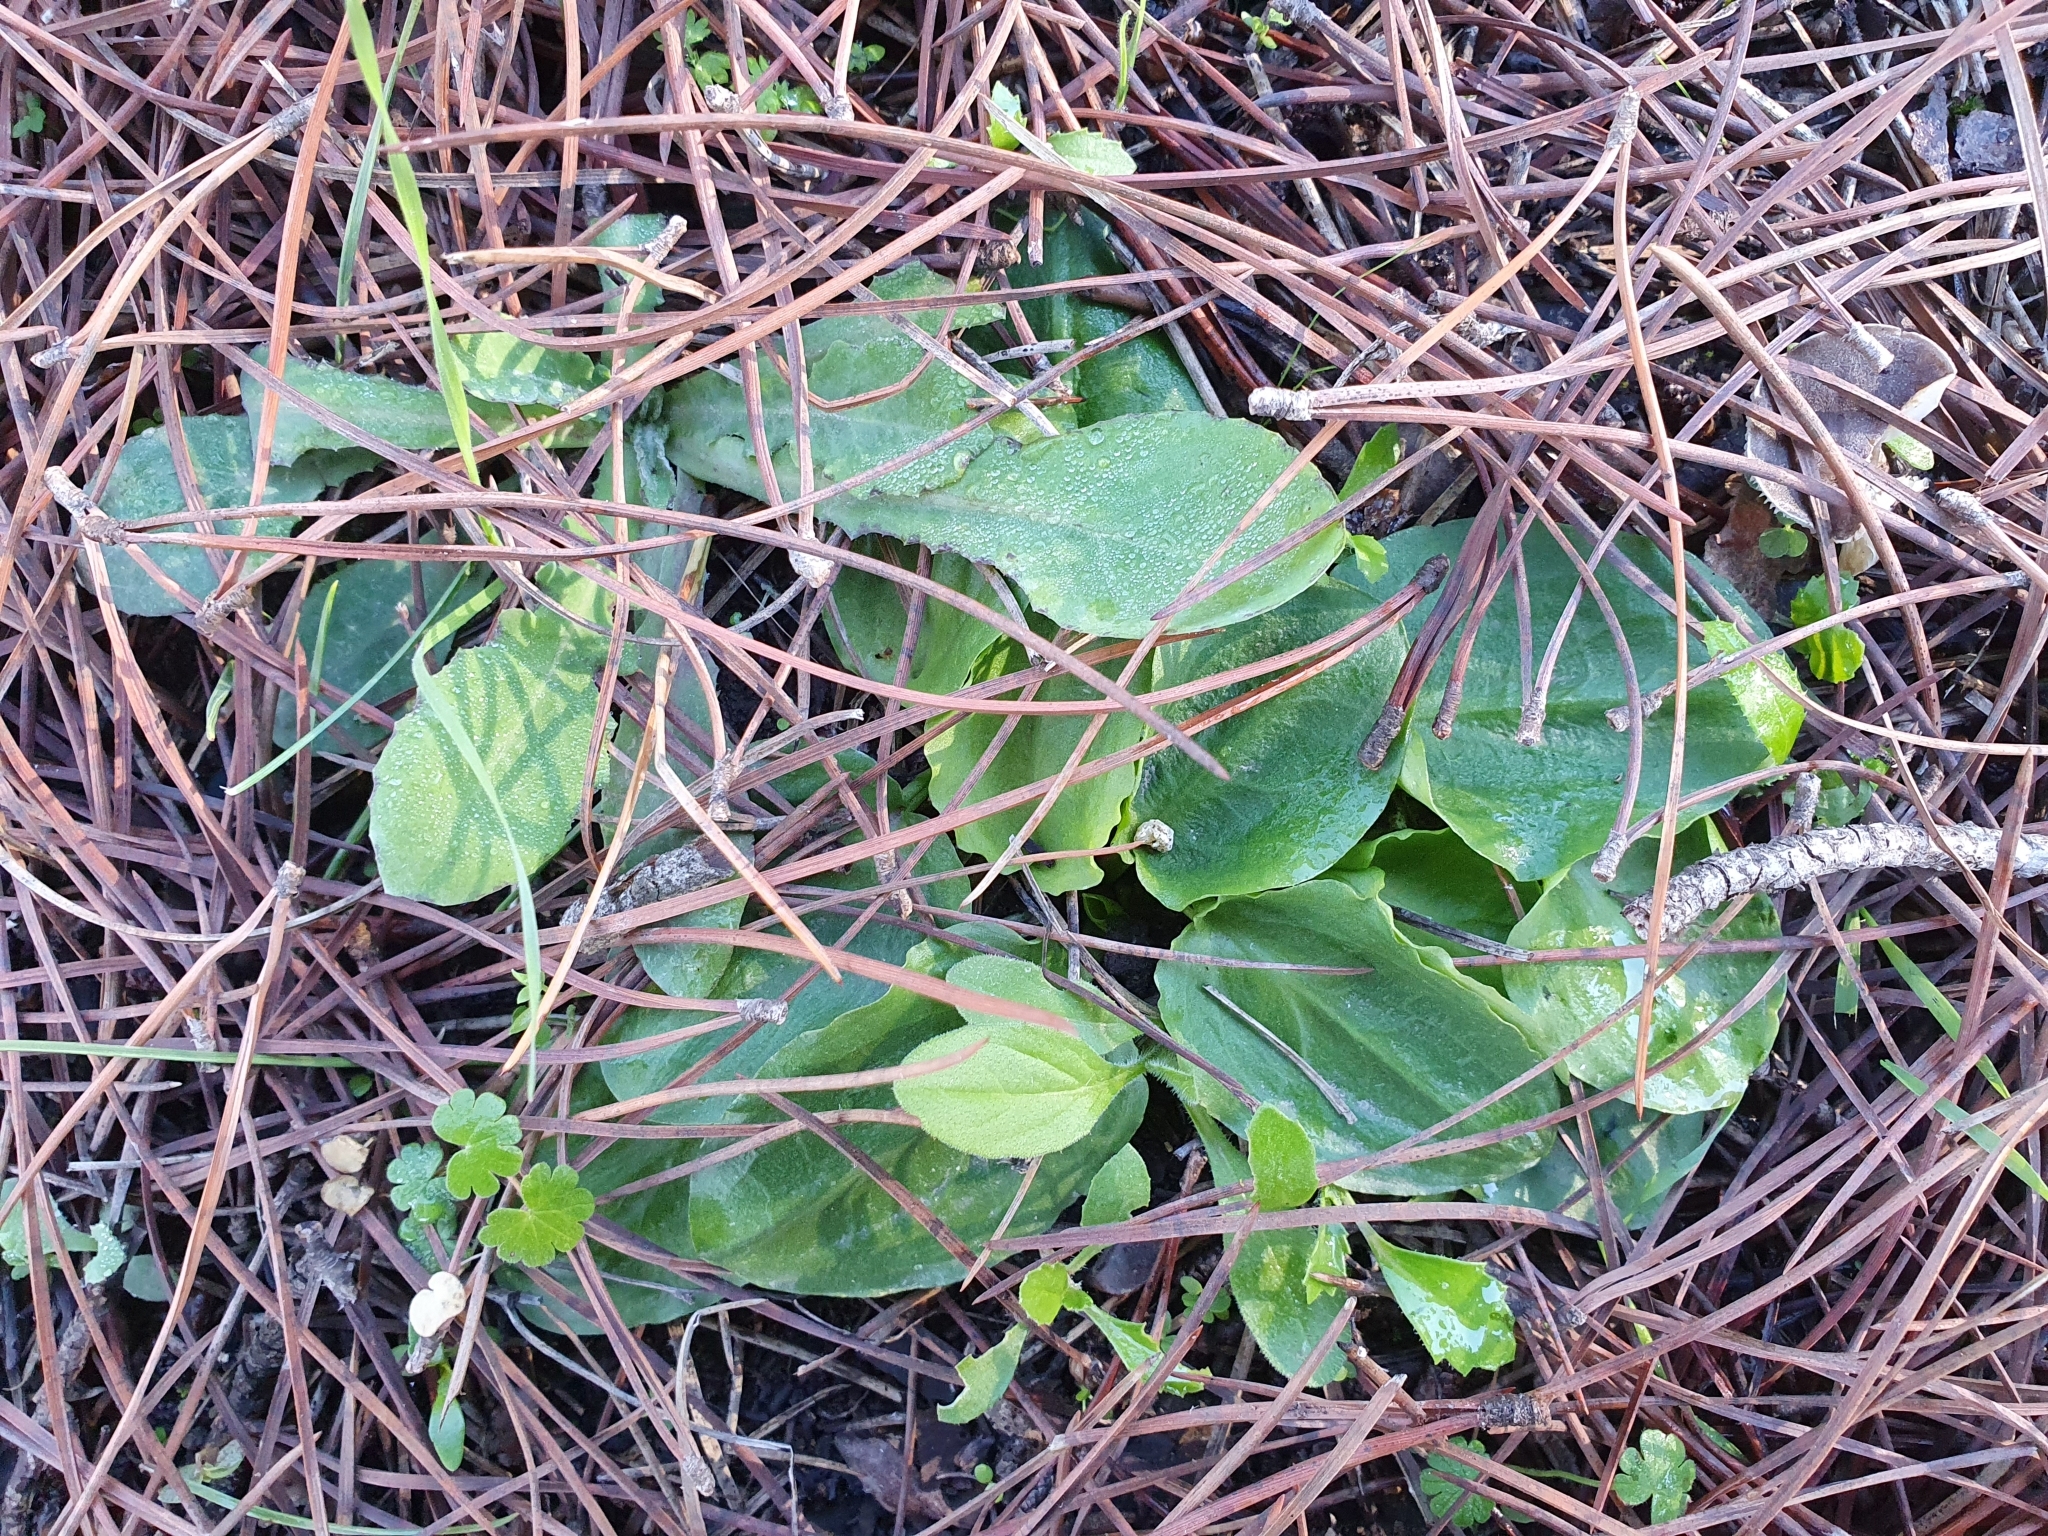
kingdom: Plantae
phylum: Tracheophyta
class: Liliopsida
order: Alismatales
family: Araceae
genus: Ambrosina
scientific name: Ambrosina bassii
